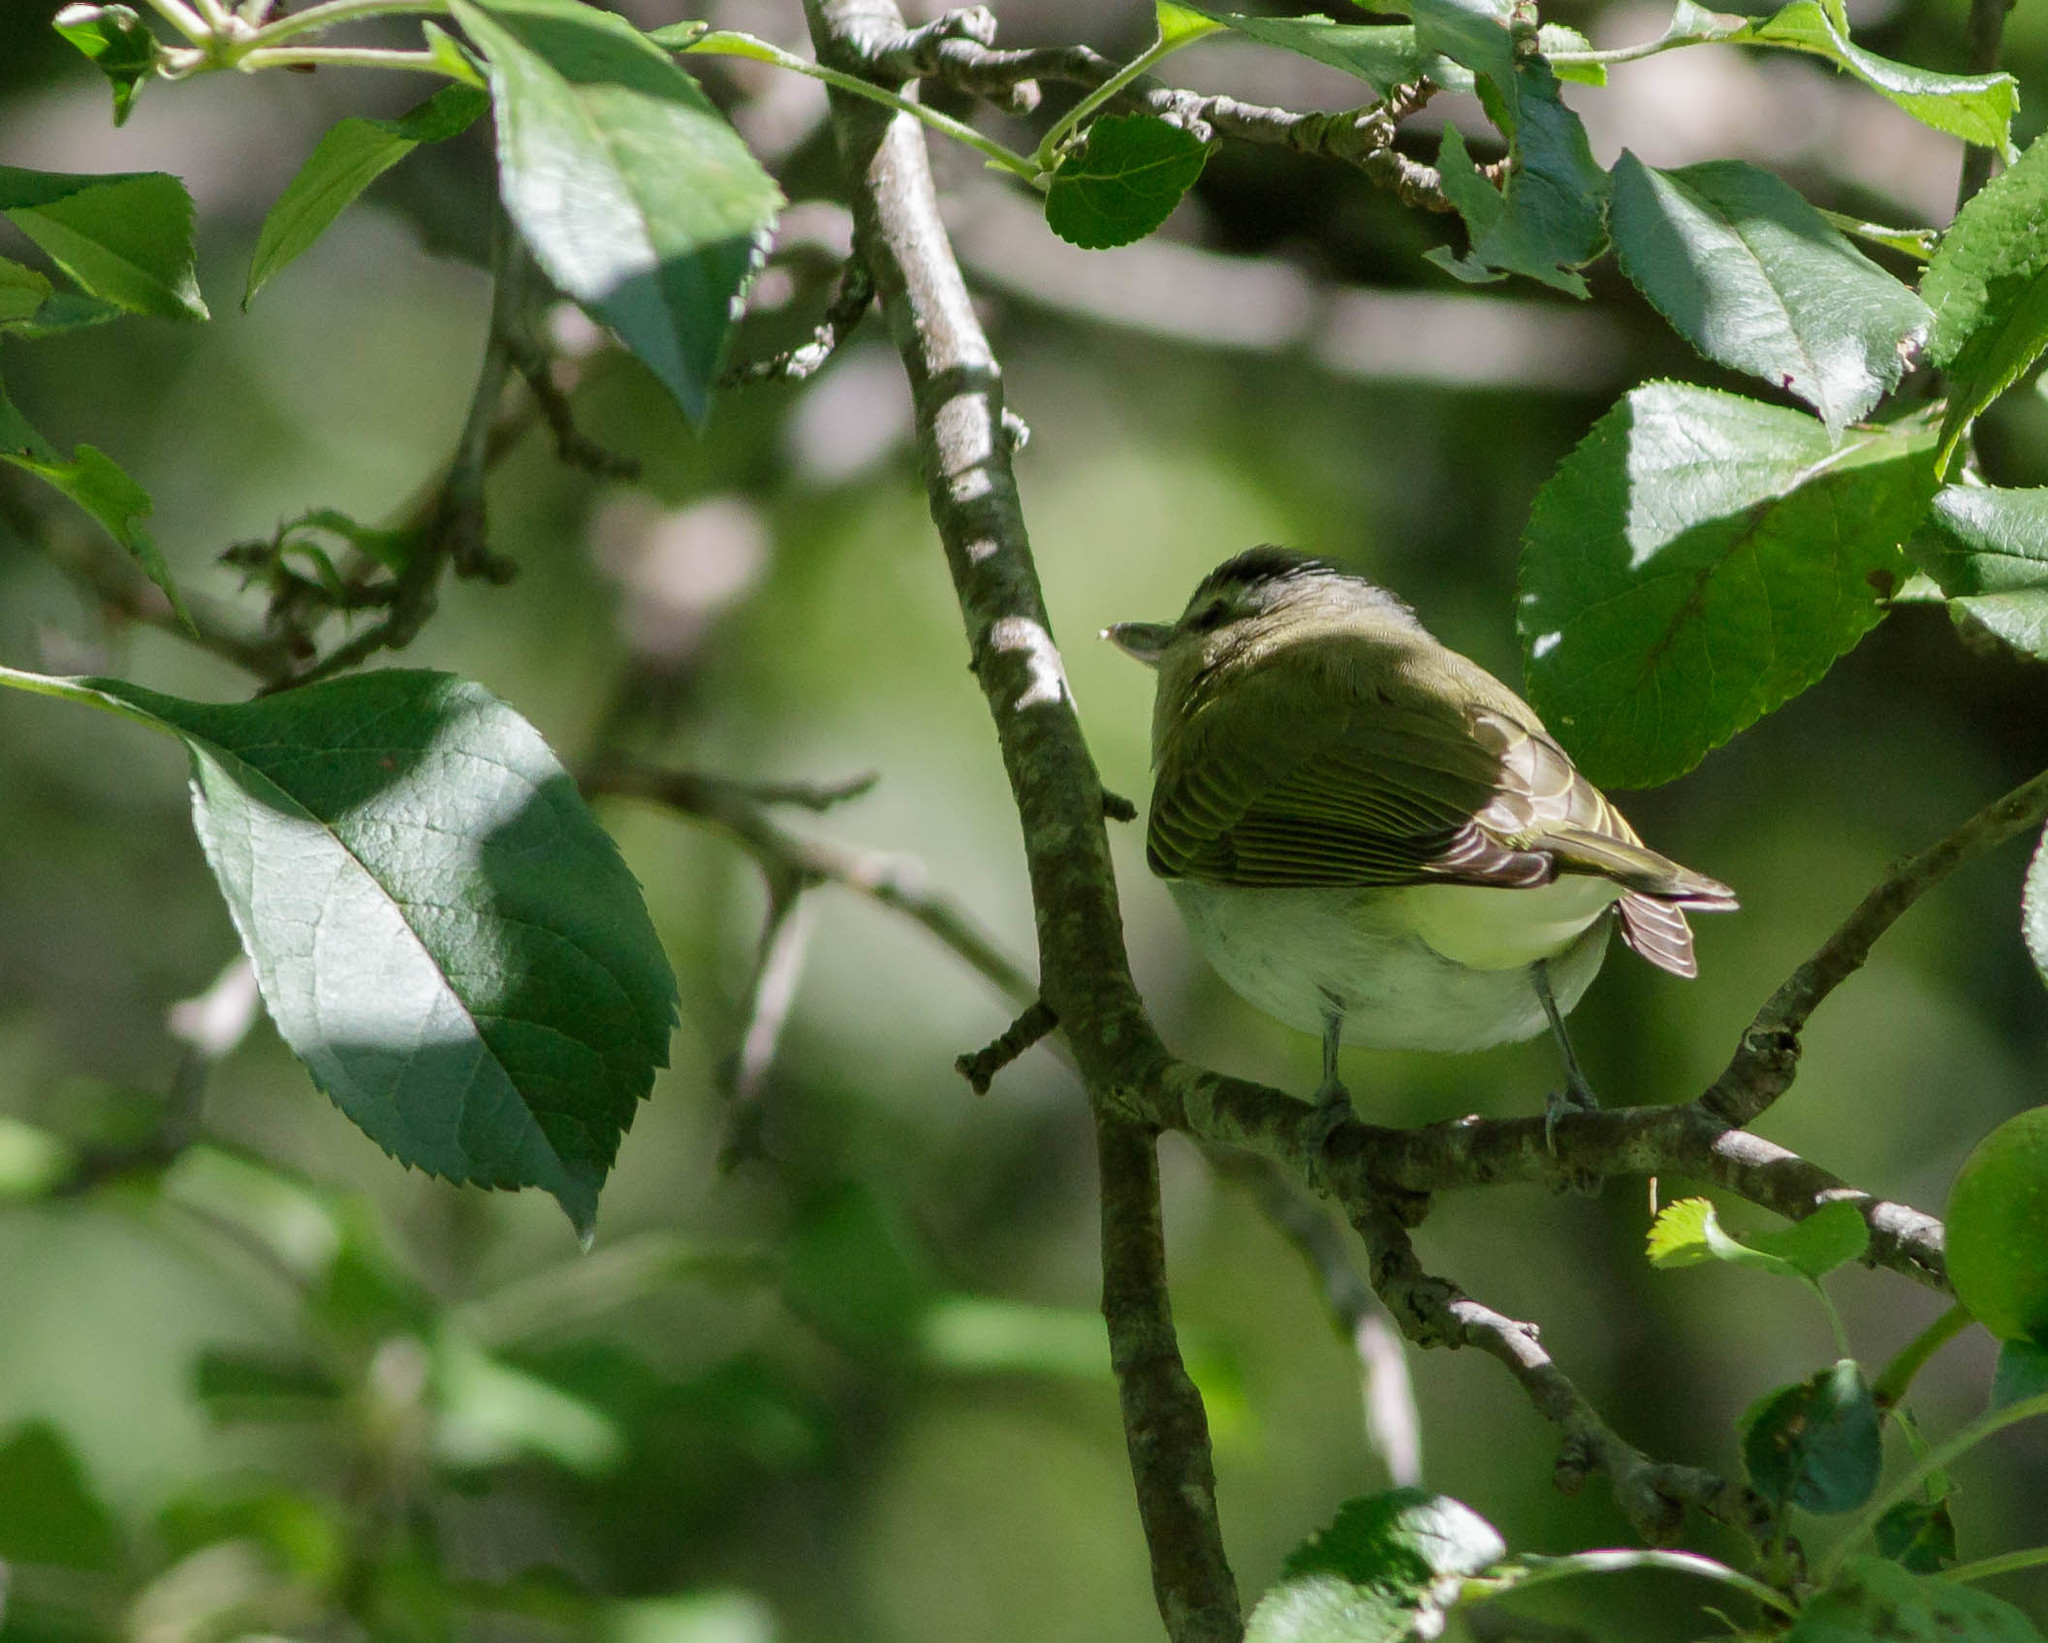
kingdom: Animalia
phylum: Chordata
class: Aves
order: Passeriformes
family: Vireonidae
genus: Vireo
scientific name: Vireo olivaceus
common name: Red-eyed vireo
